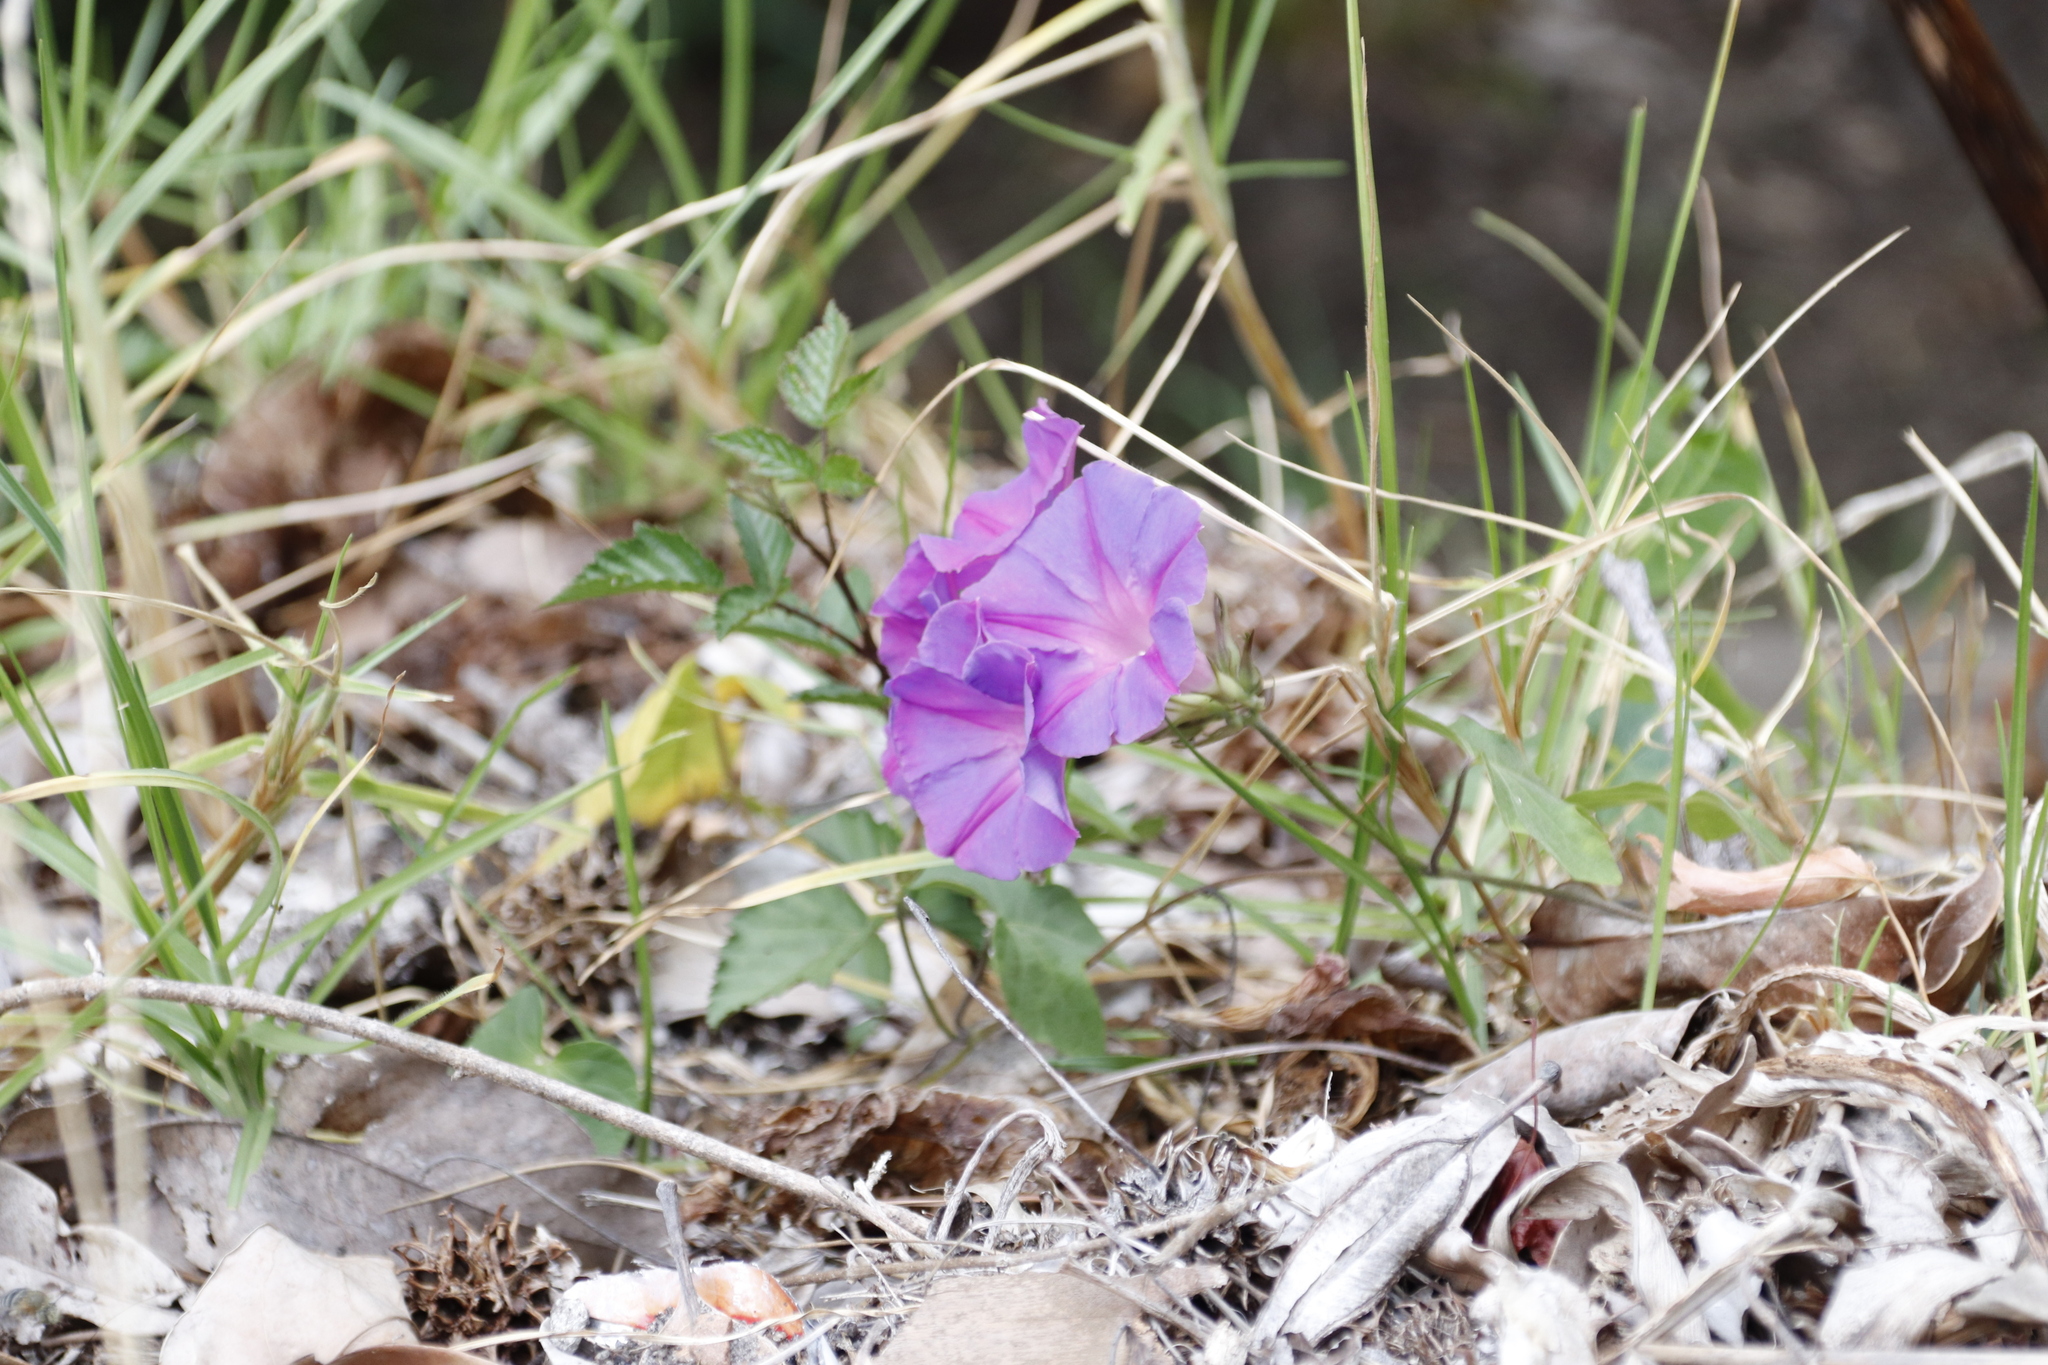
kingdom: Plantae
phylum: Tracheophyta
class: Magnoliopsida
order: Solanales
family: Convolvulaceae
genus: Ipomoea
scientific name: Ipomoea indica
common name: Blue dawnflower
